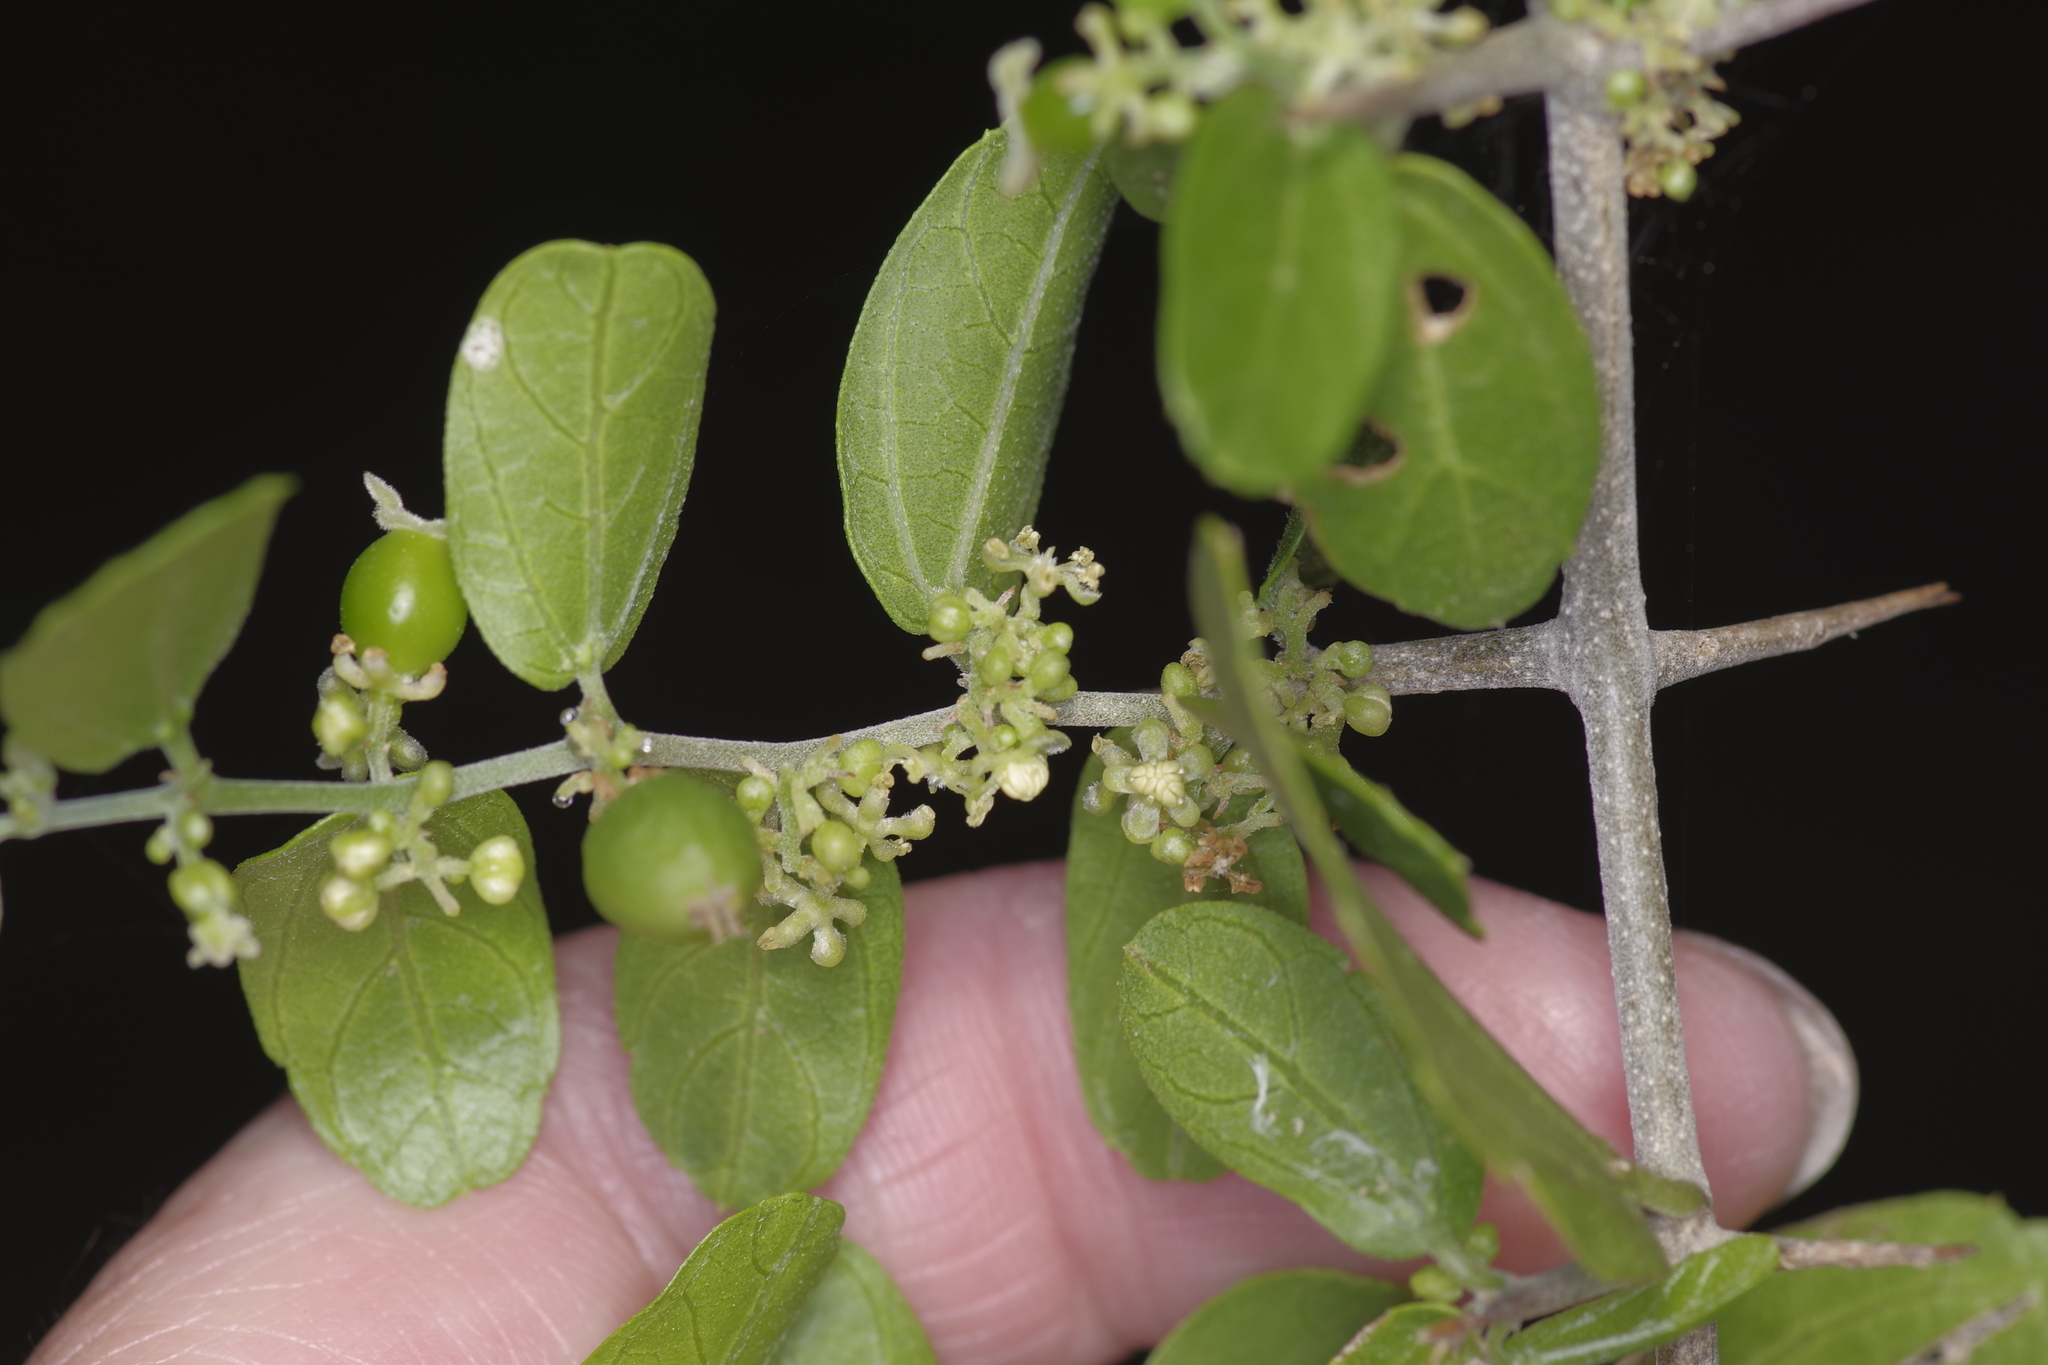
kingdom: Plantae
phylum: Tracheophyta
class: Magnoliopsida
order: Rosales
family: Cannabaceae
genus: Celtis
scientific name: Celtis pallida
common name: Desert hackberry
